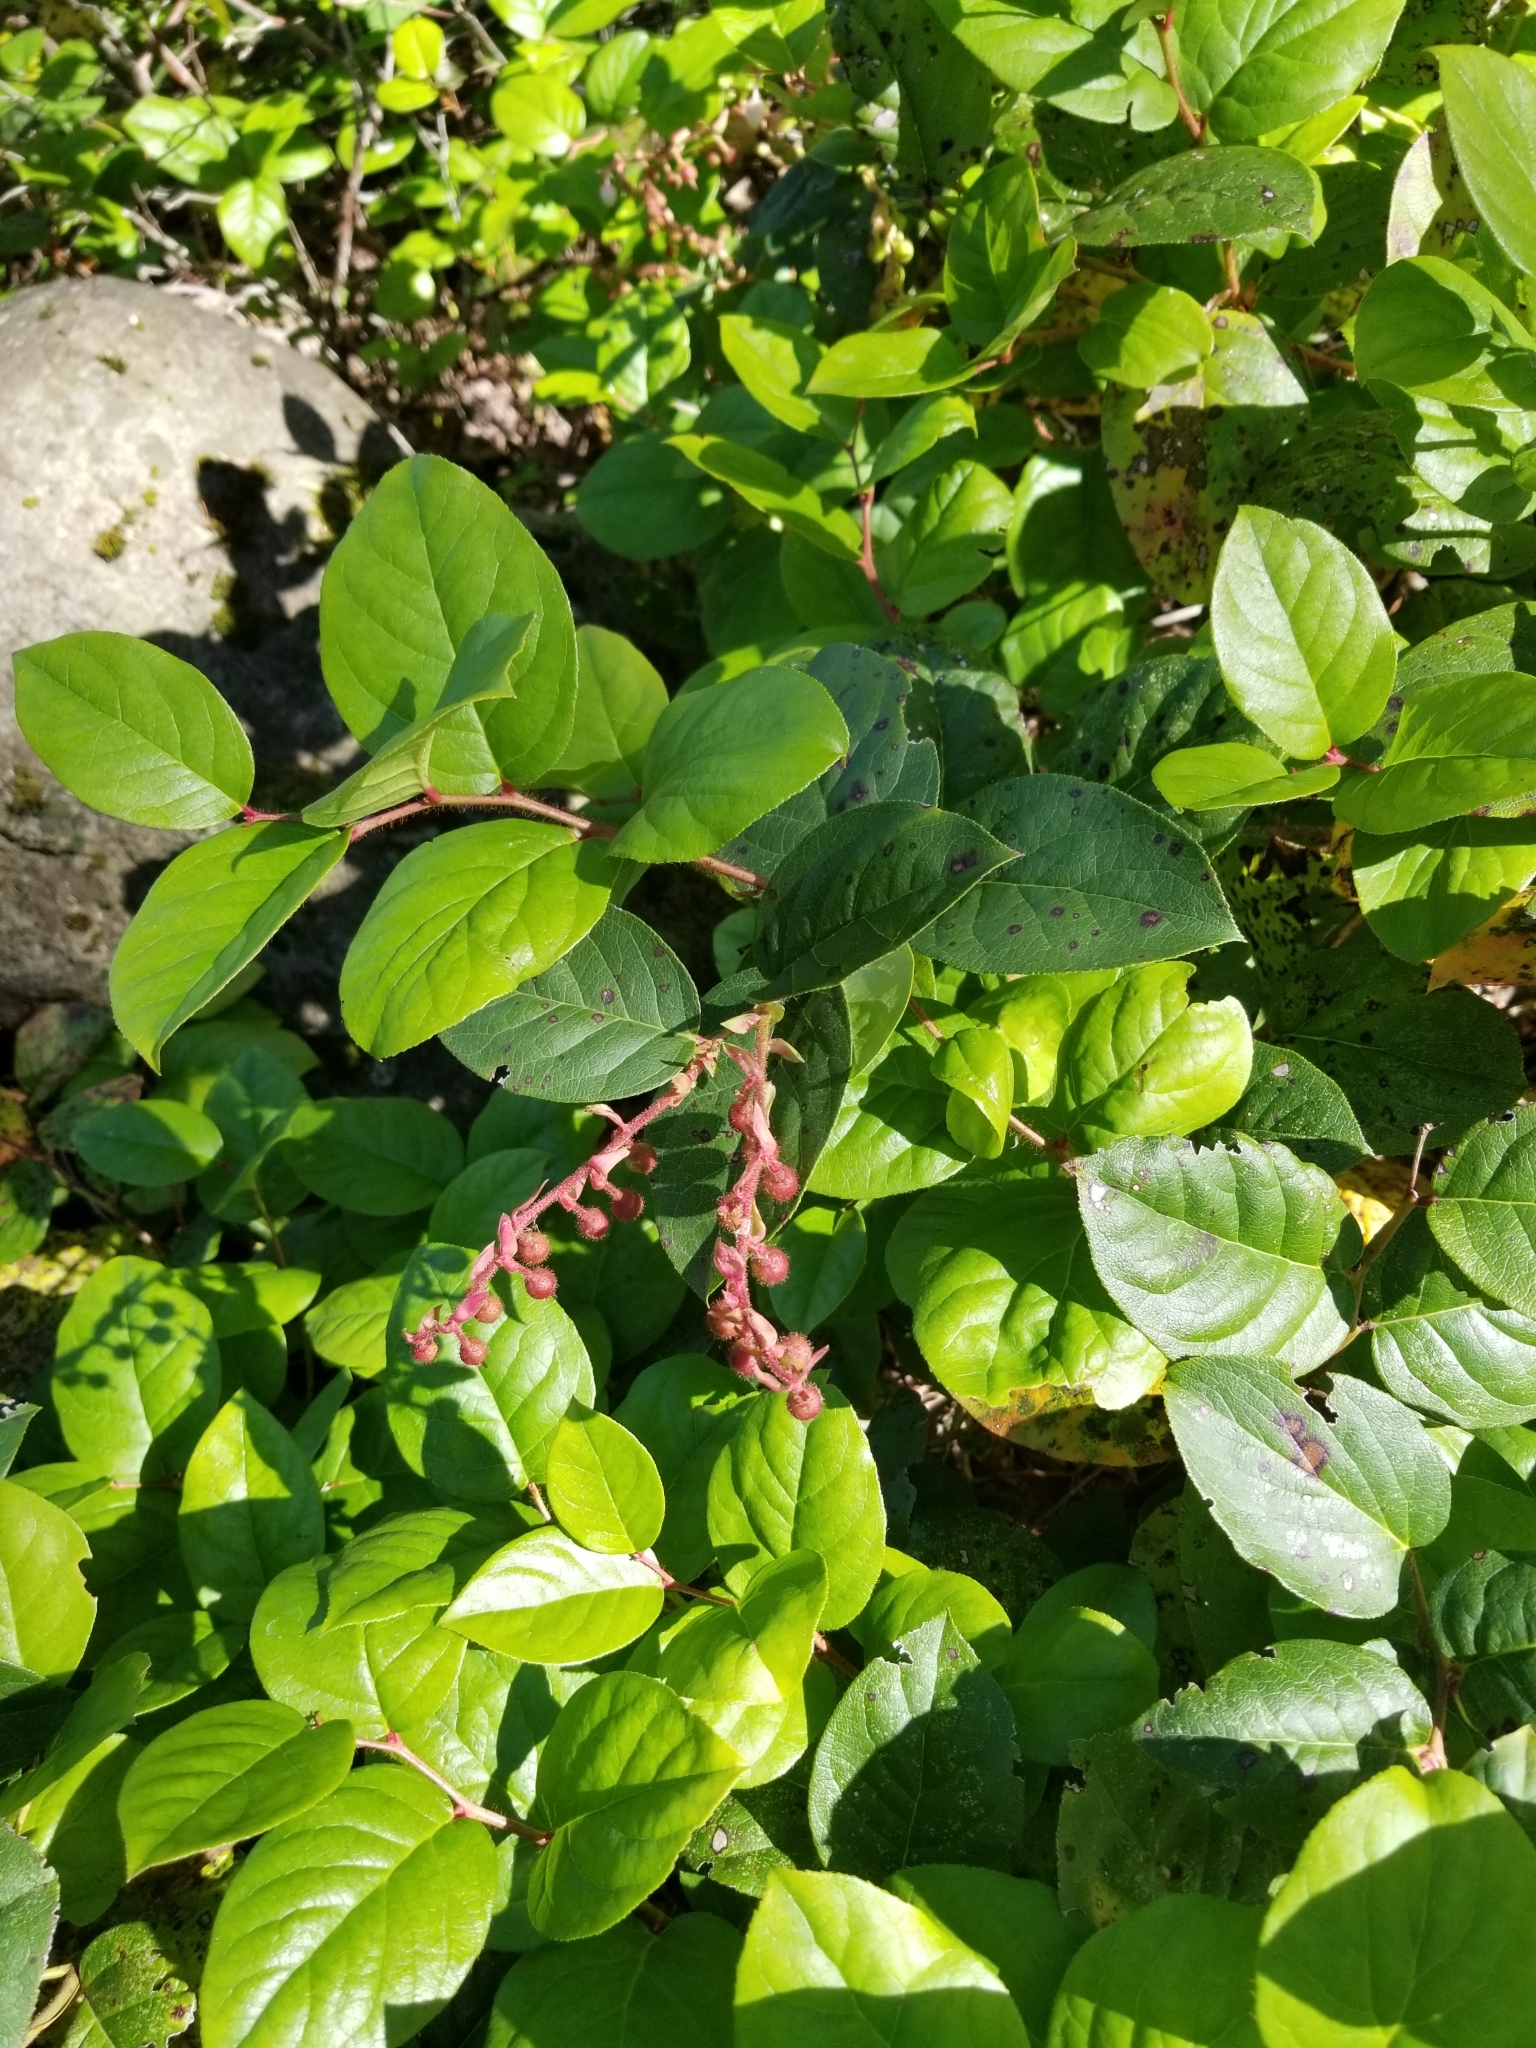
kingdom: Plantae
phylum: Tracheophyta
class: Magnoliopsida
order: Ericales
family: Ericaceae
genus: Gaultheria
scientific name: Gaultheria shallon
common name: Shallon
